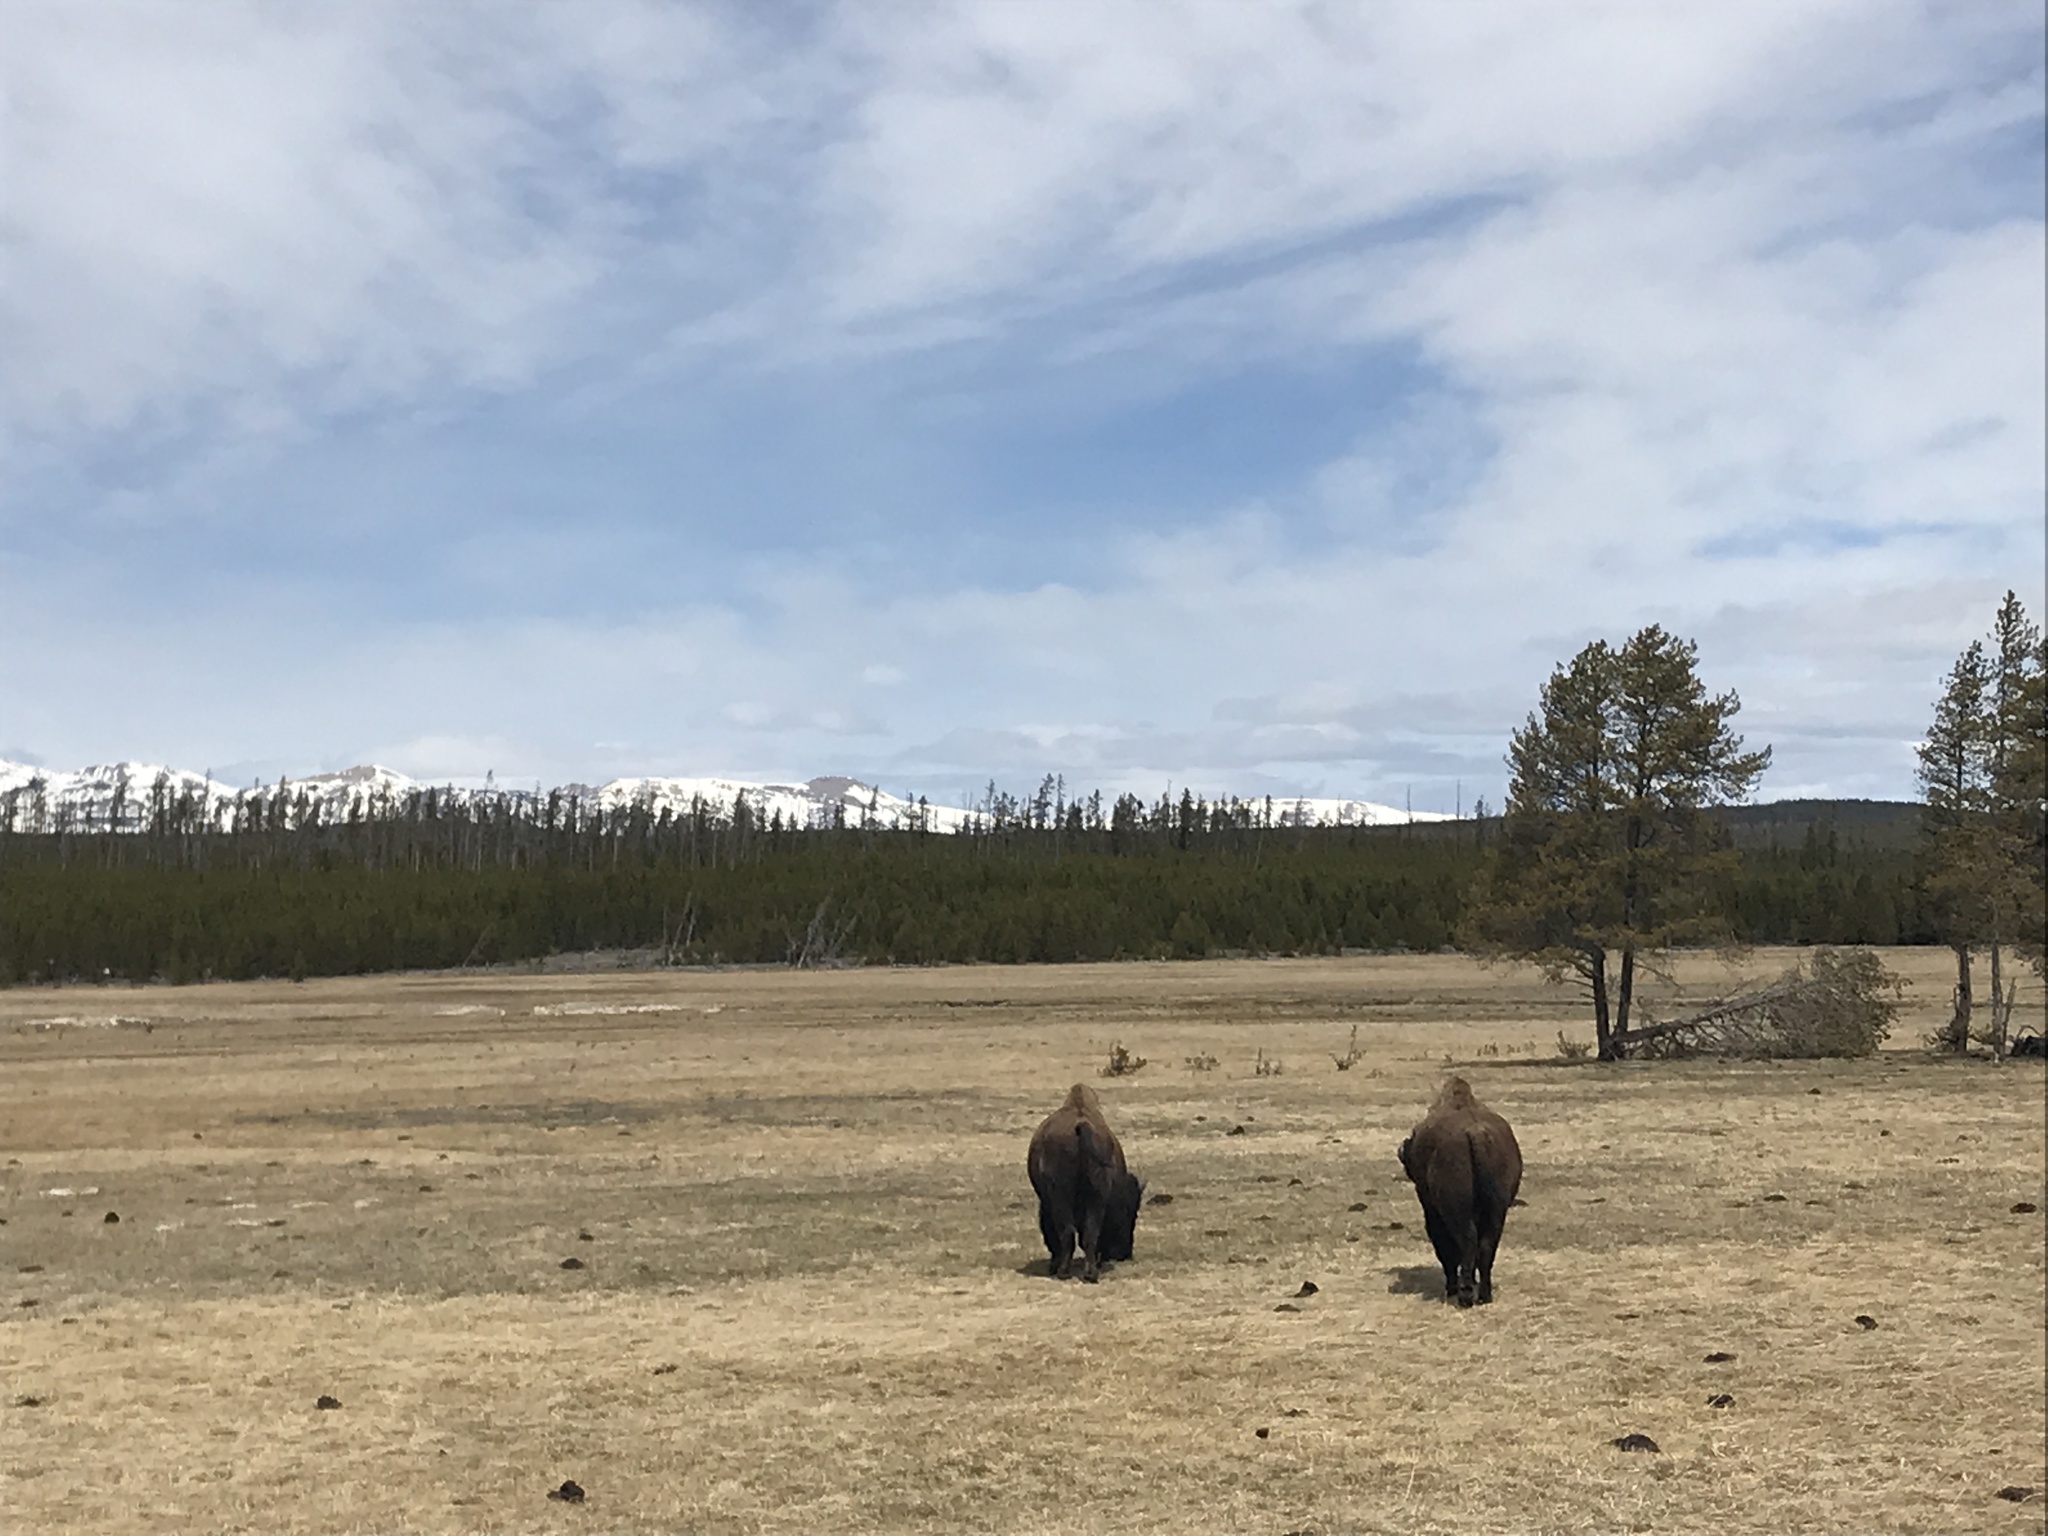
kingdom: Animalia
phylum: Chordata
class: Mammalia
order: Artiodactyla
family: Bovidae
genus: Bison
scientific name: Bison bison
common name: American bison
